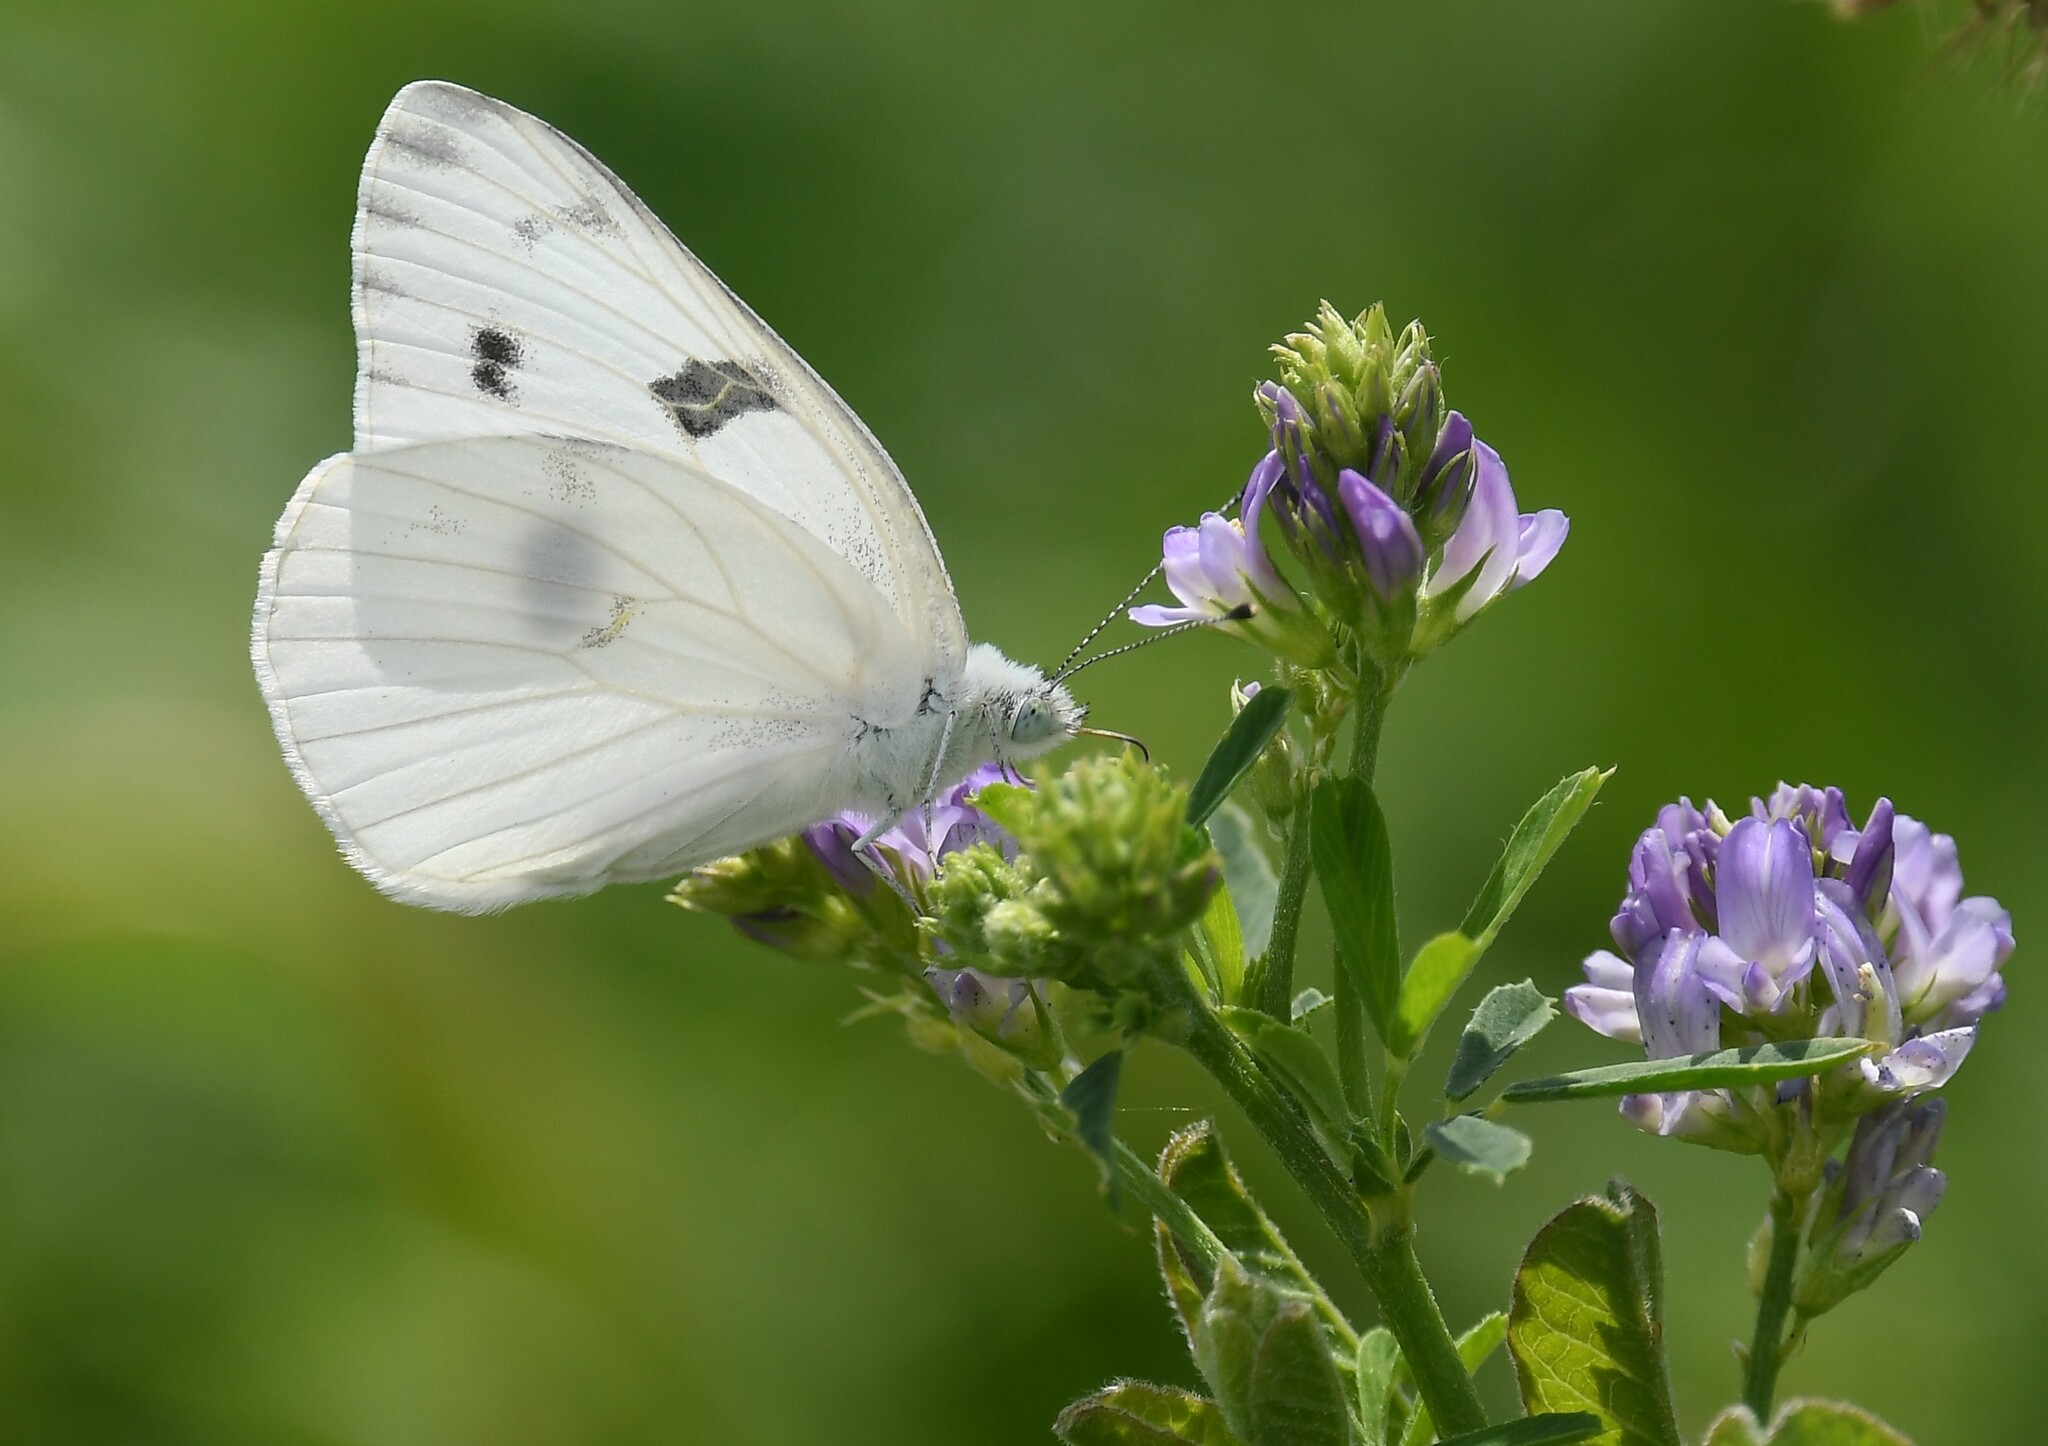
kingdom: Animalia
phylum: Arthropoda
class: Insecta
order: Lepidoptera
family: Pieridae
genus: Pontia
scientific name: Pontia protodice
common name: Checkered white
